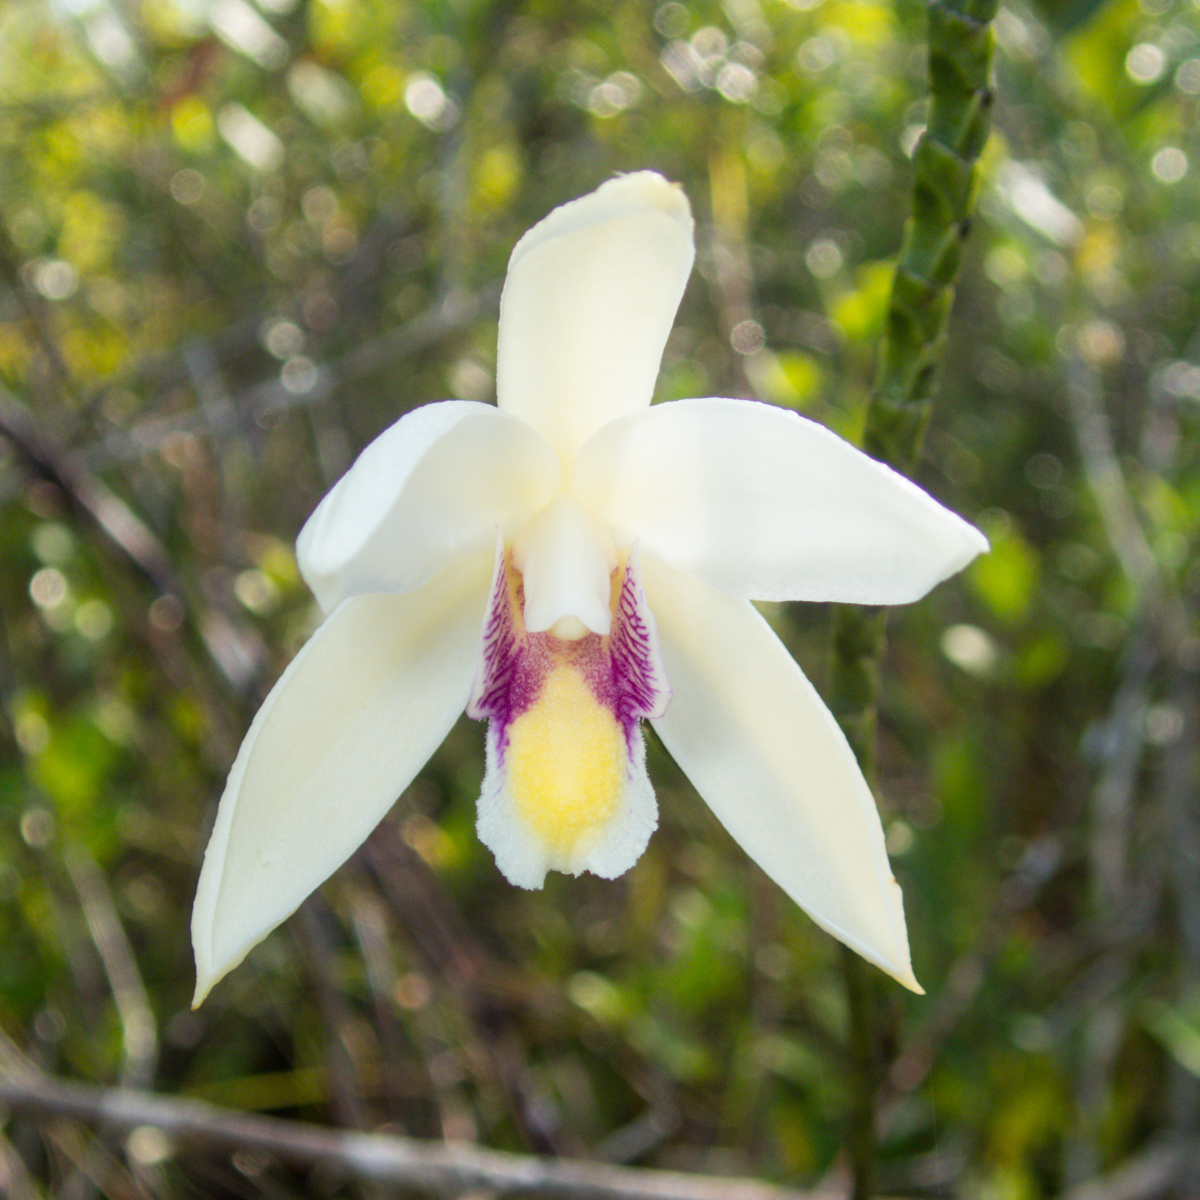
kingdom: Plantae
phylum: Tracheophyta
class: Liliopsida
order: Asparagales
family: Orchidaceae
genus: Bromheadia
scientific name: Bromheadia finlaysoniana
